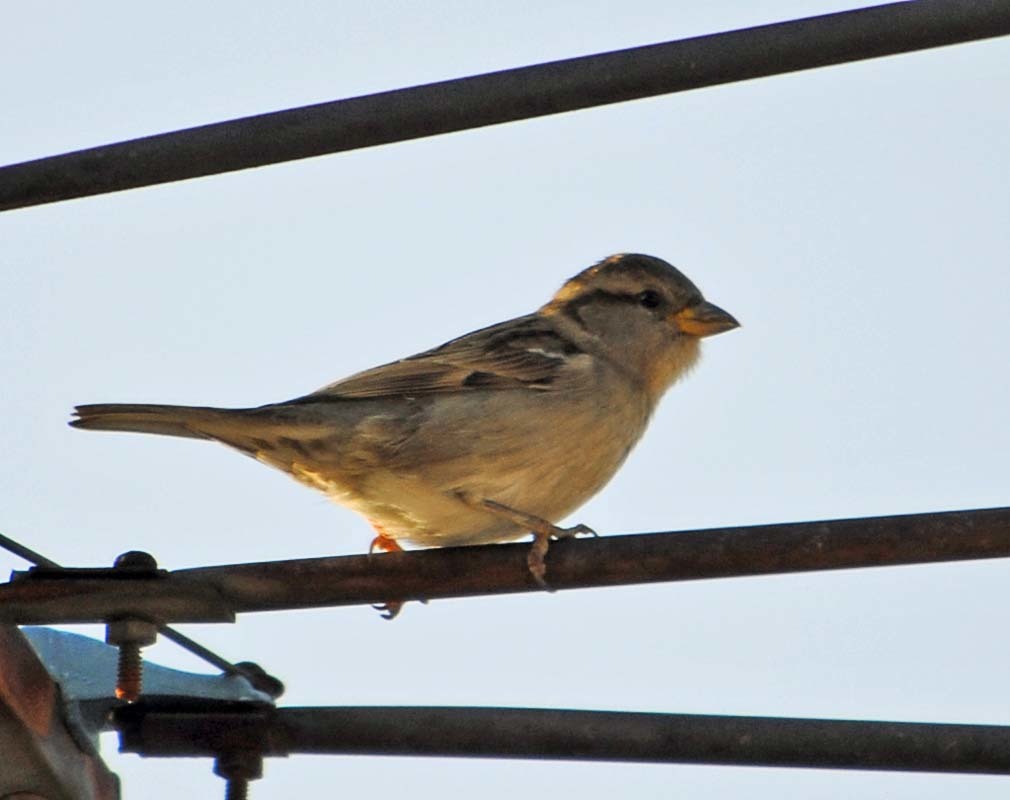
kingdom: Animalia
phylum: Chordata
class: Aves
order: Passeriformes
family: Passeridae
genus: Passer
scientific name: Passer domesticus
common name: House sparrow
